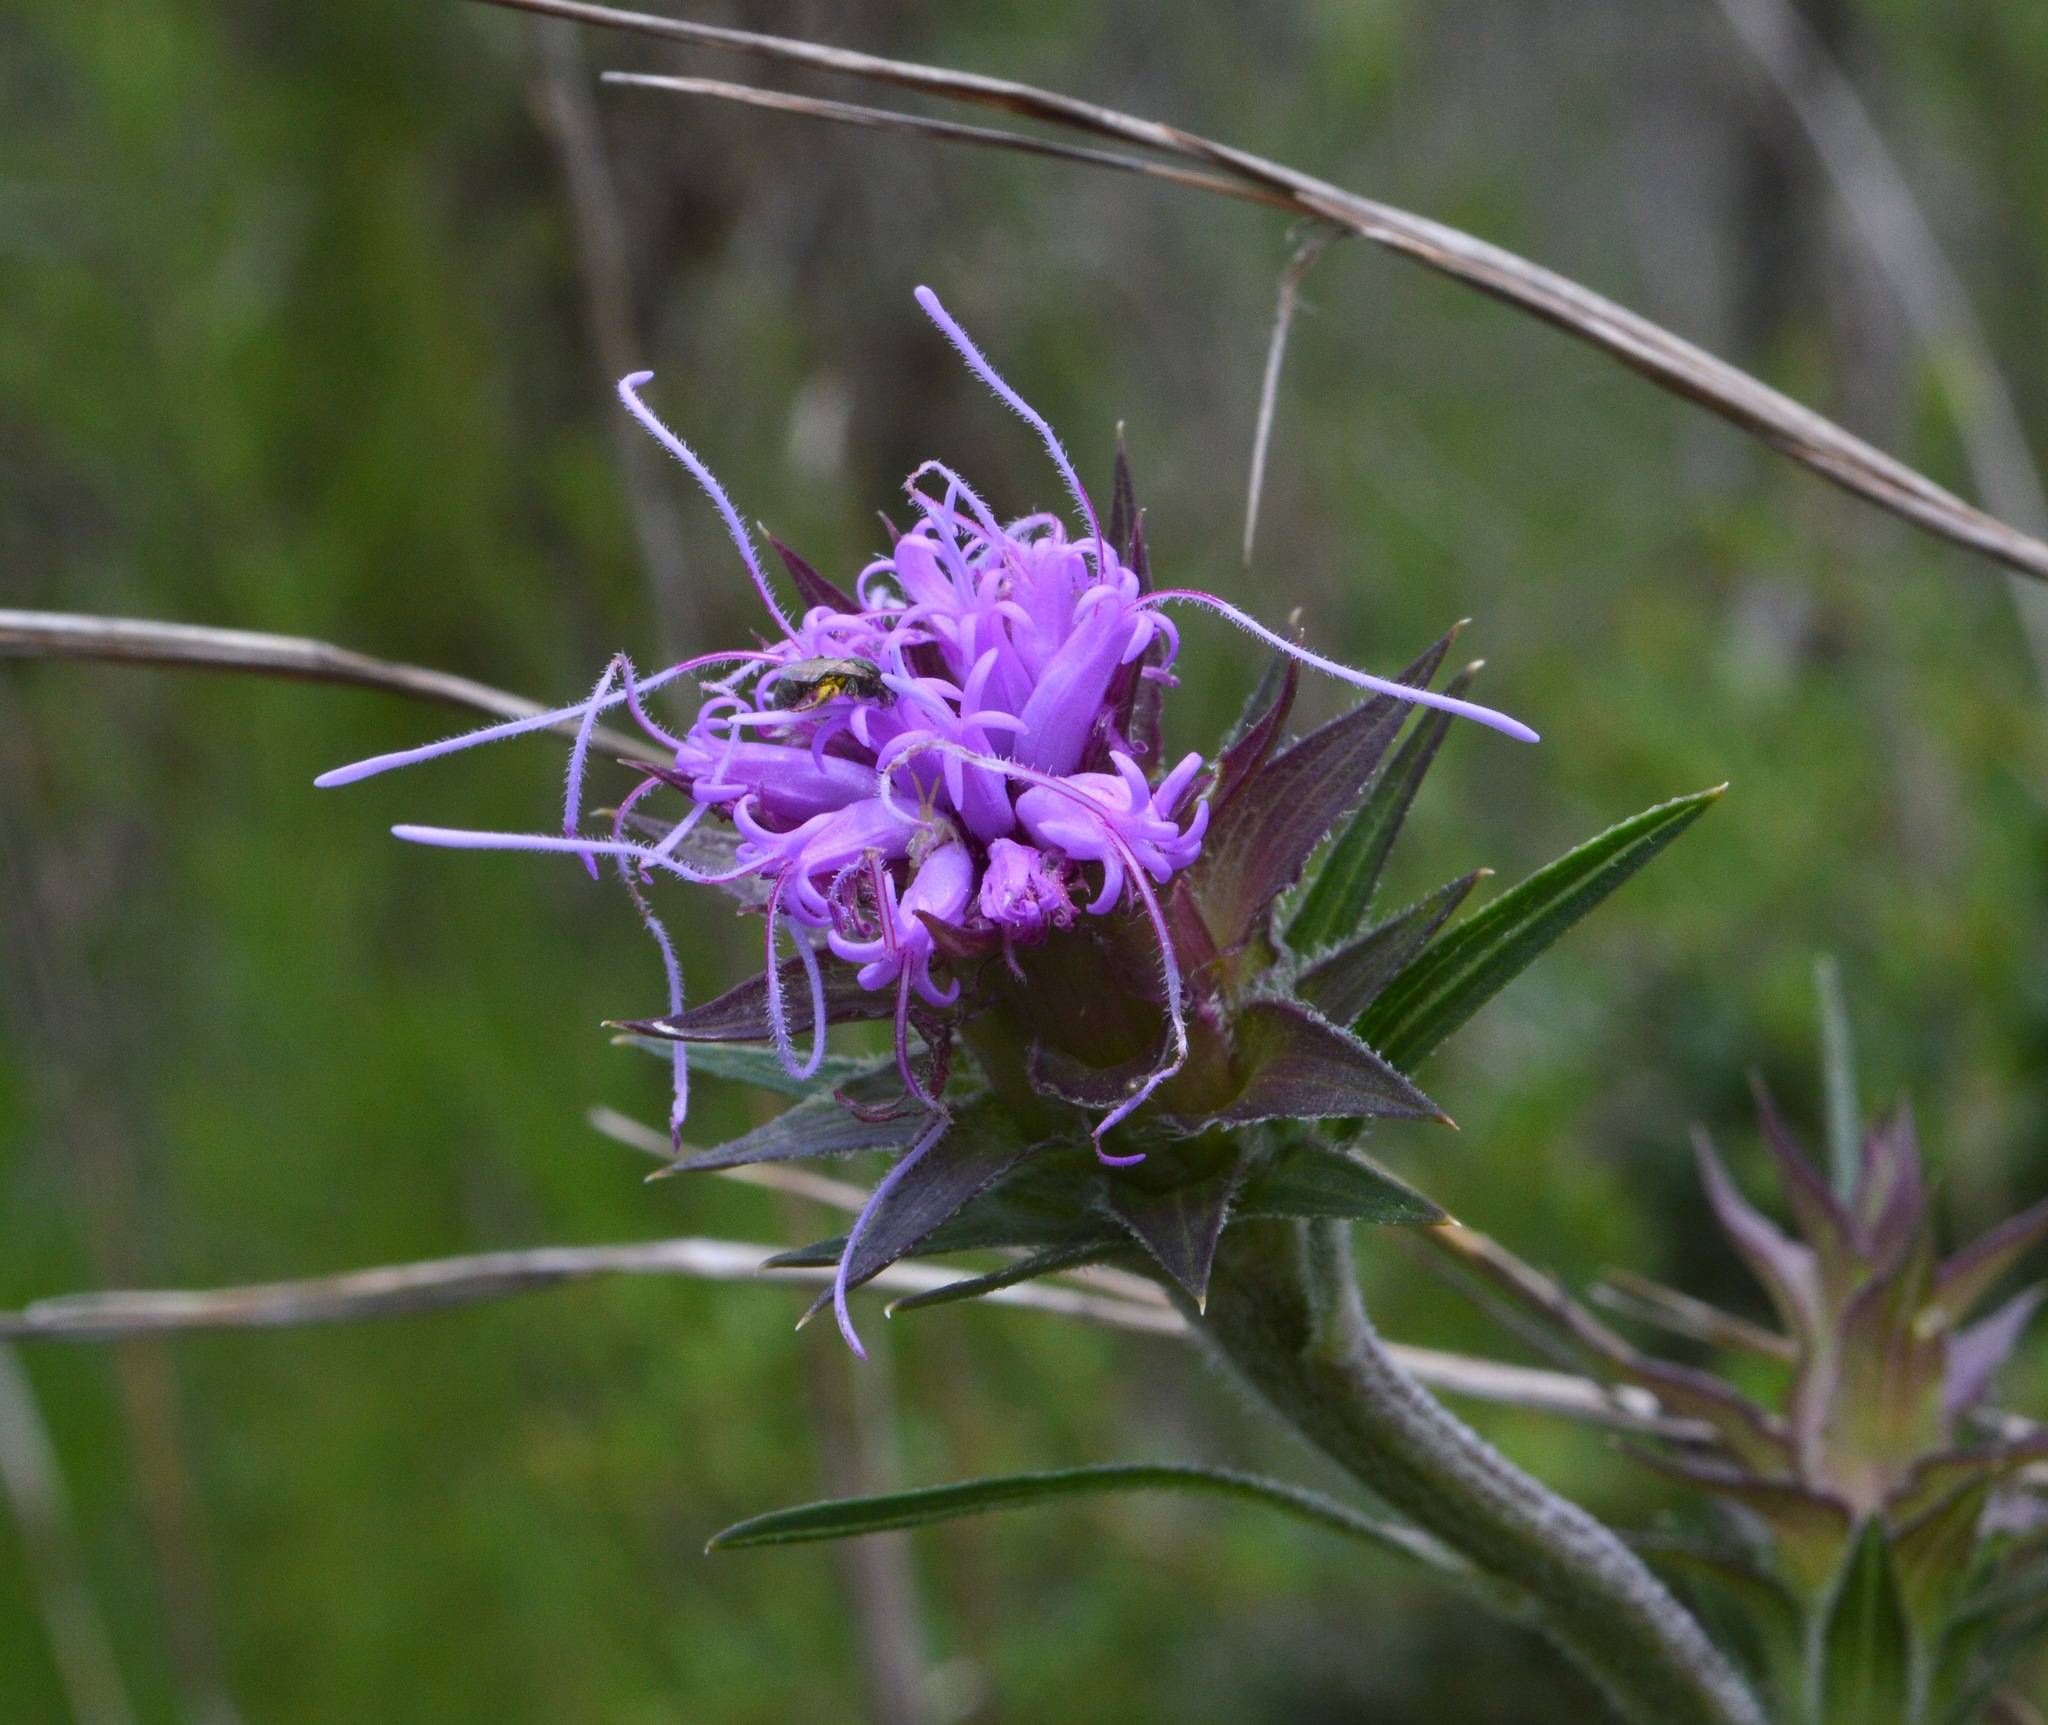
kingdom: Plantae
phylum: Tracheophyta
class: Magnoliopsida
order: Asterales
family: Asteraceae
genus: Liatris
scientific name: Liatris squarrosa
